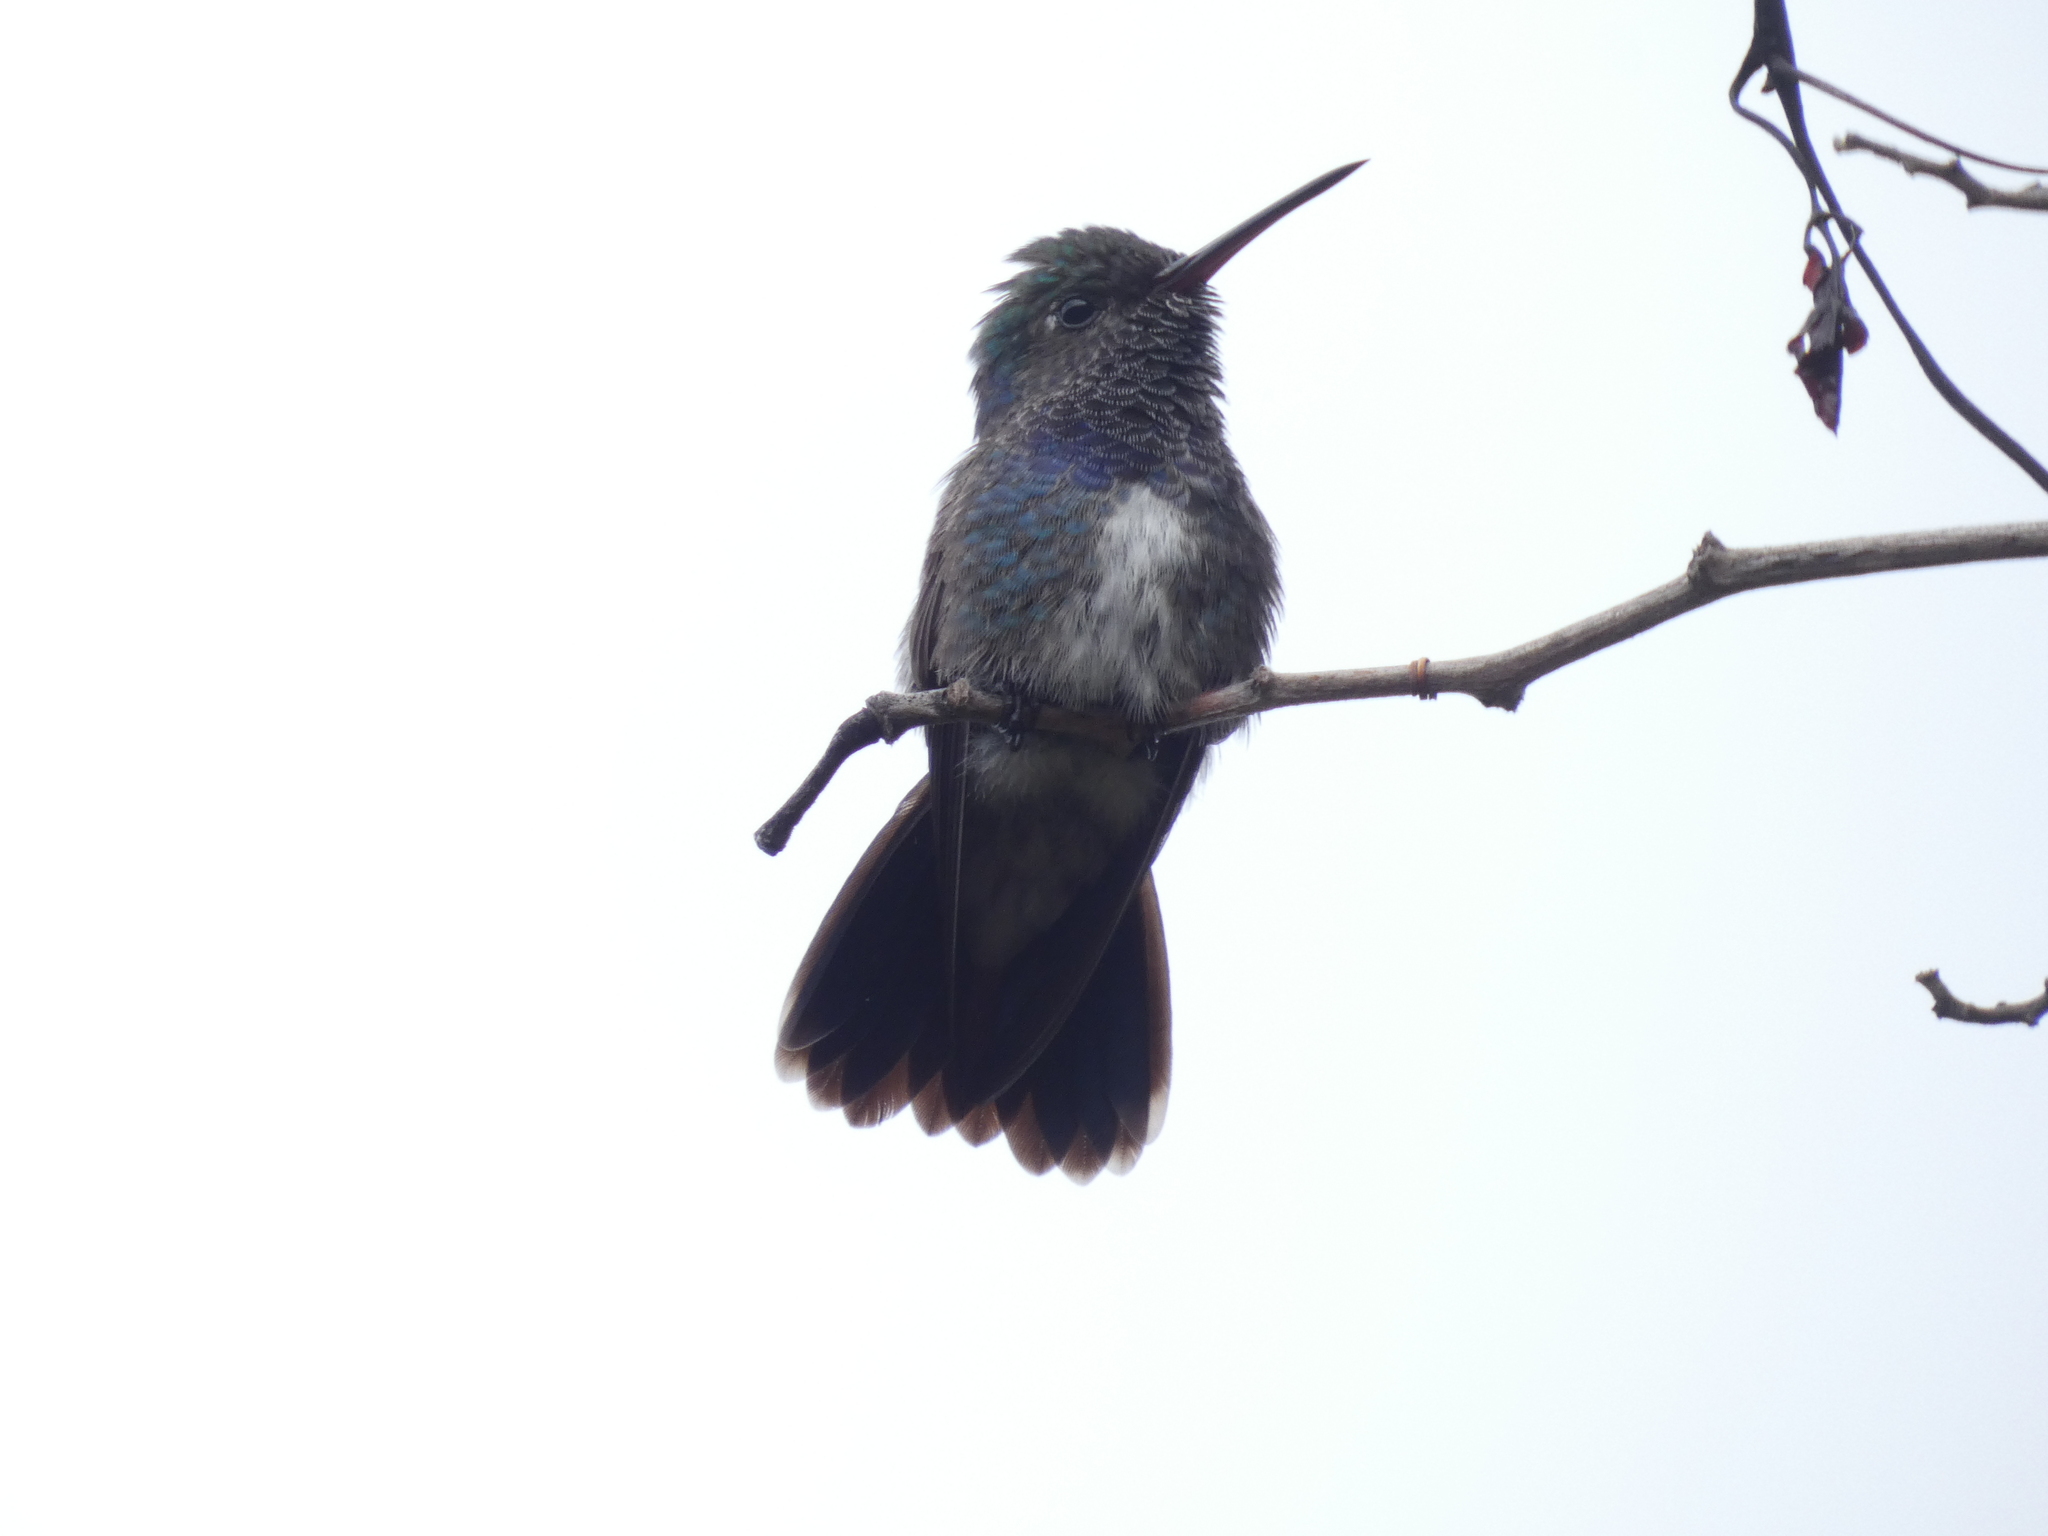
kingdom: Animalia
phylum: Chordata
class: Aves
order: Apodiformes
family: Trochilidae
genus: Chionomesa
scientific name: Chionomesa lactea
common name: Sapphire-spangled emerald
